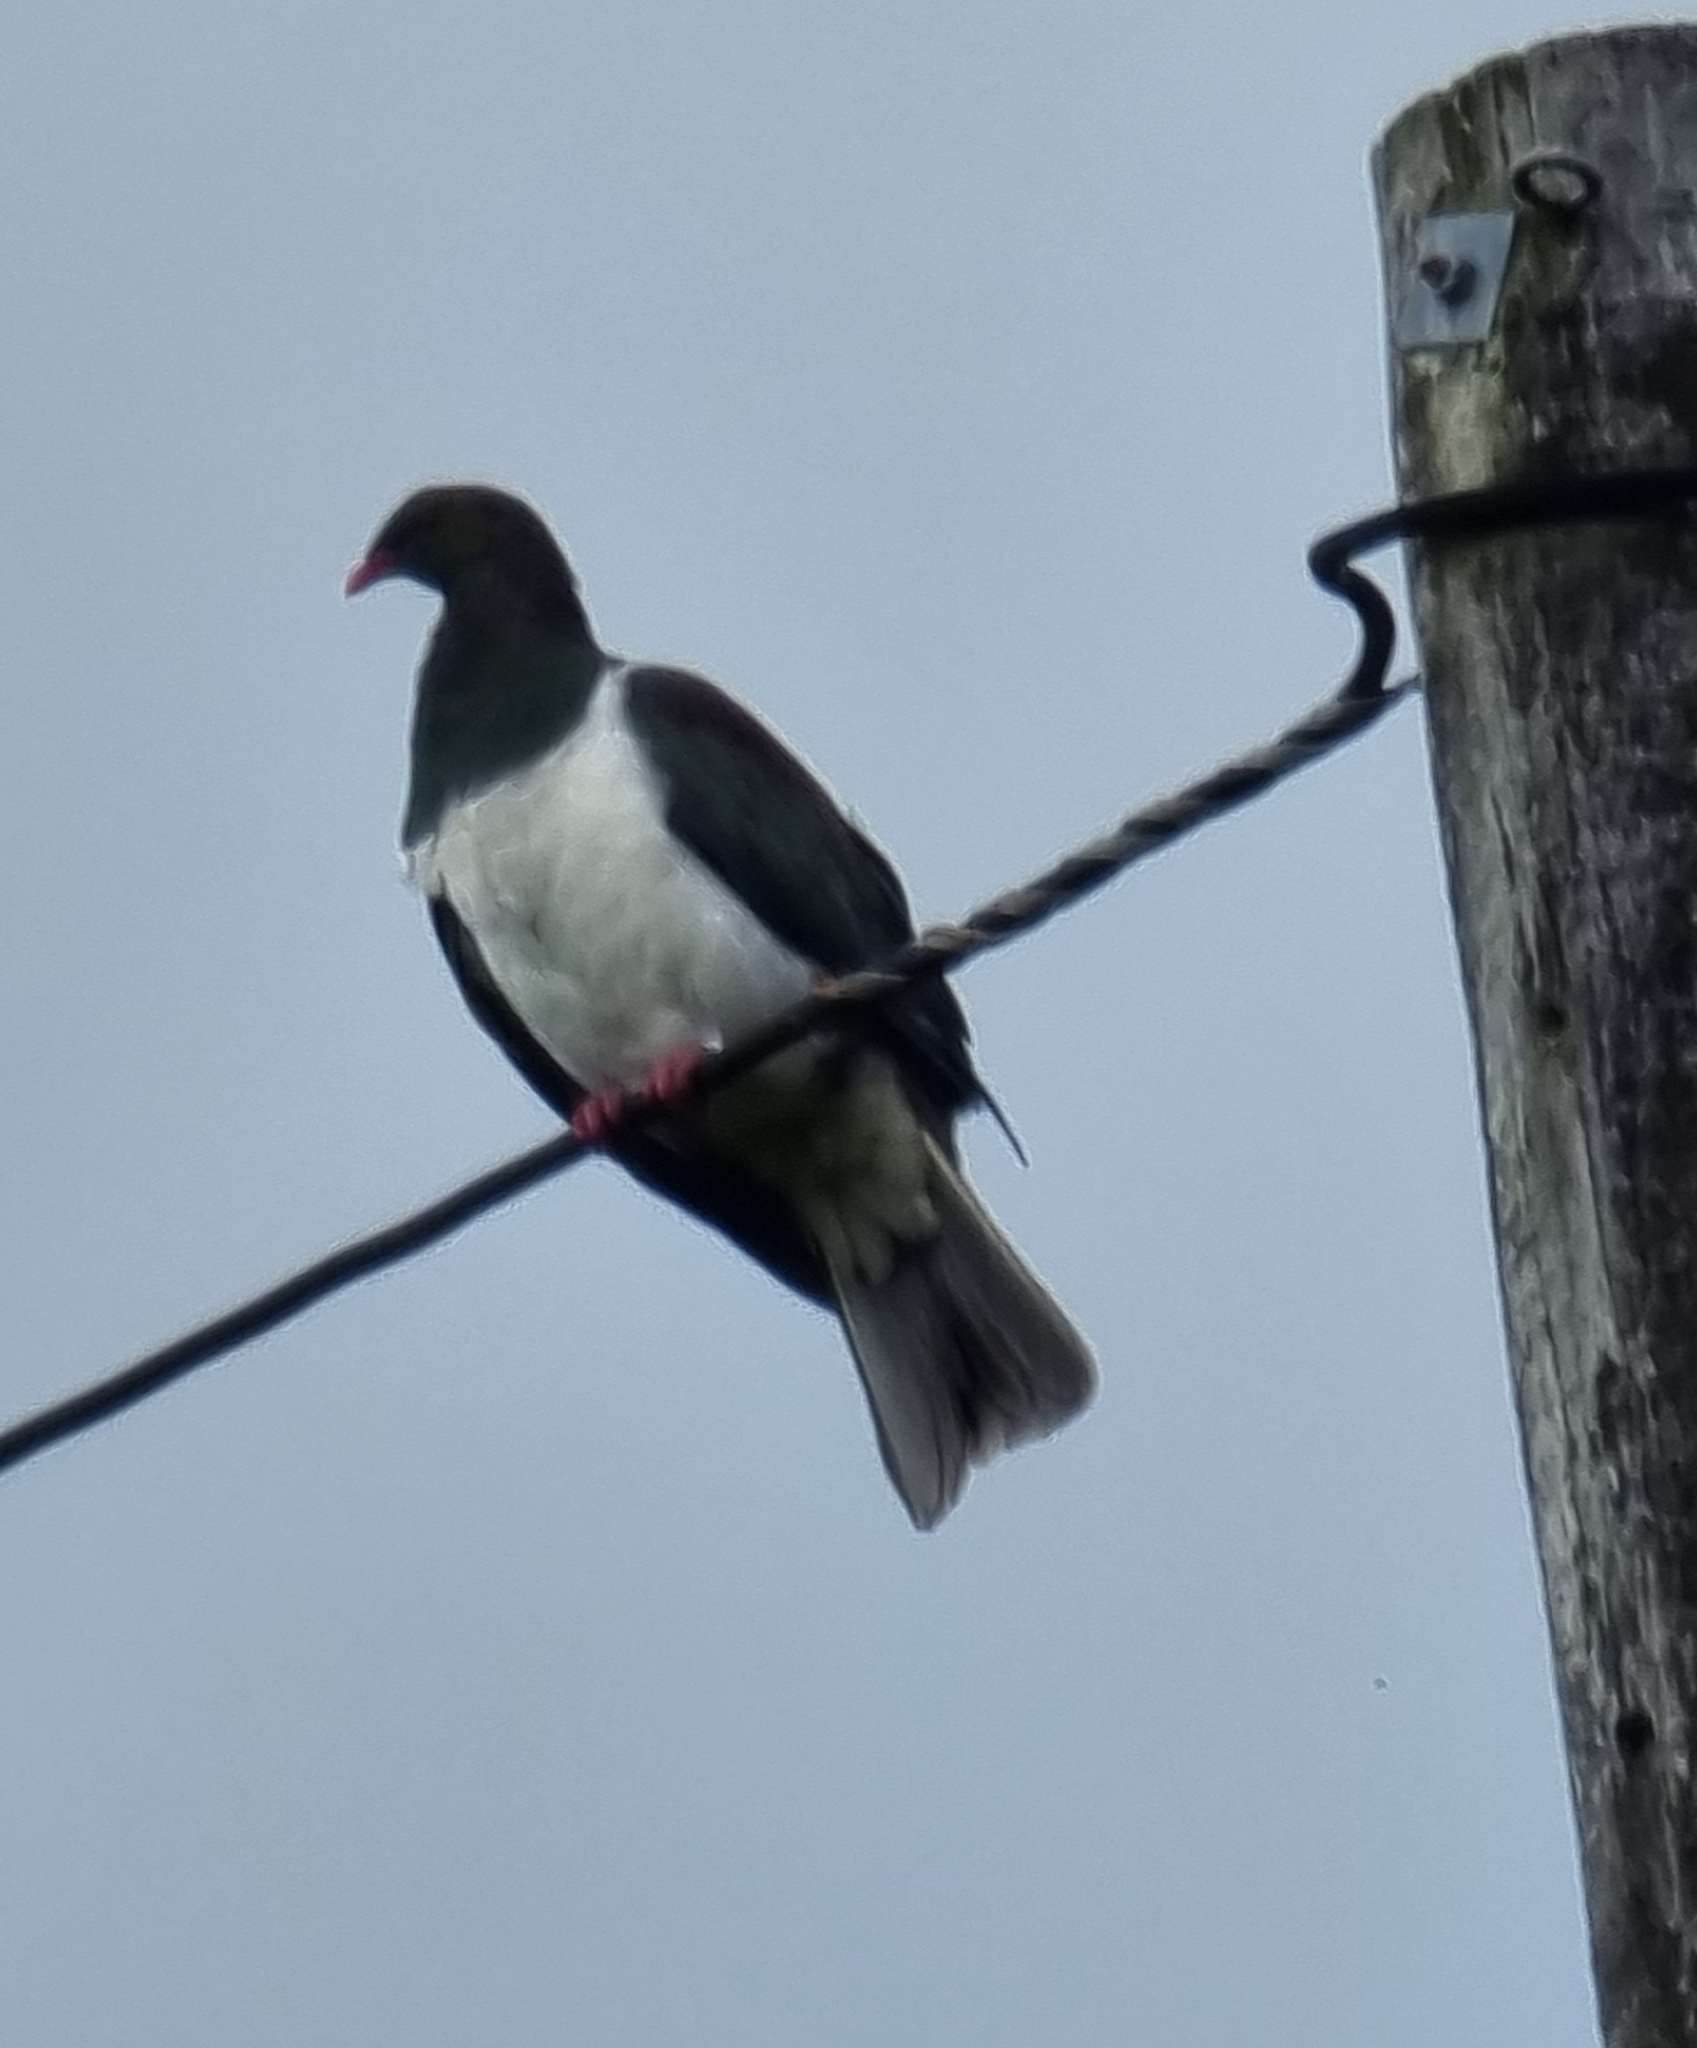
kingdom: Animalia
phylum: Chordata
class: Aves
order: Columbiformes
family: Columbidae
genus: Hemiphaga
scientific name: Hemiphaga novaeseelandiae
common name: New zealand pigeon
